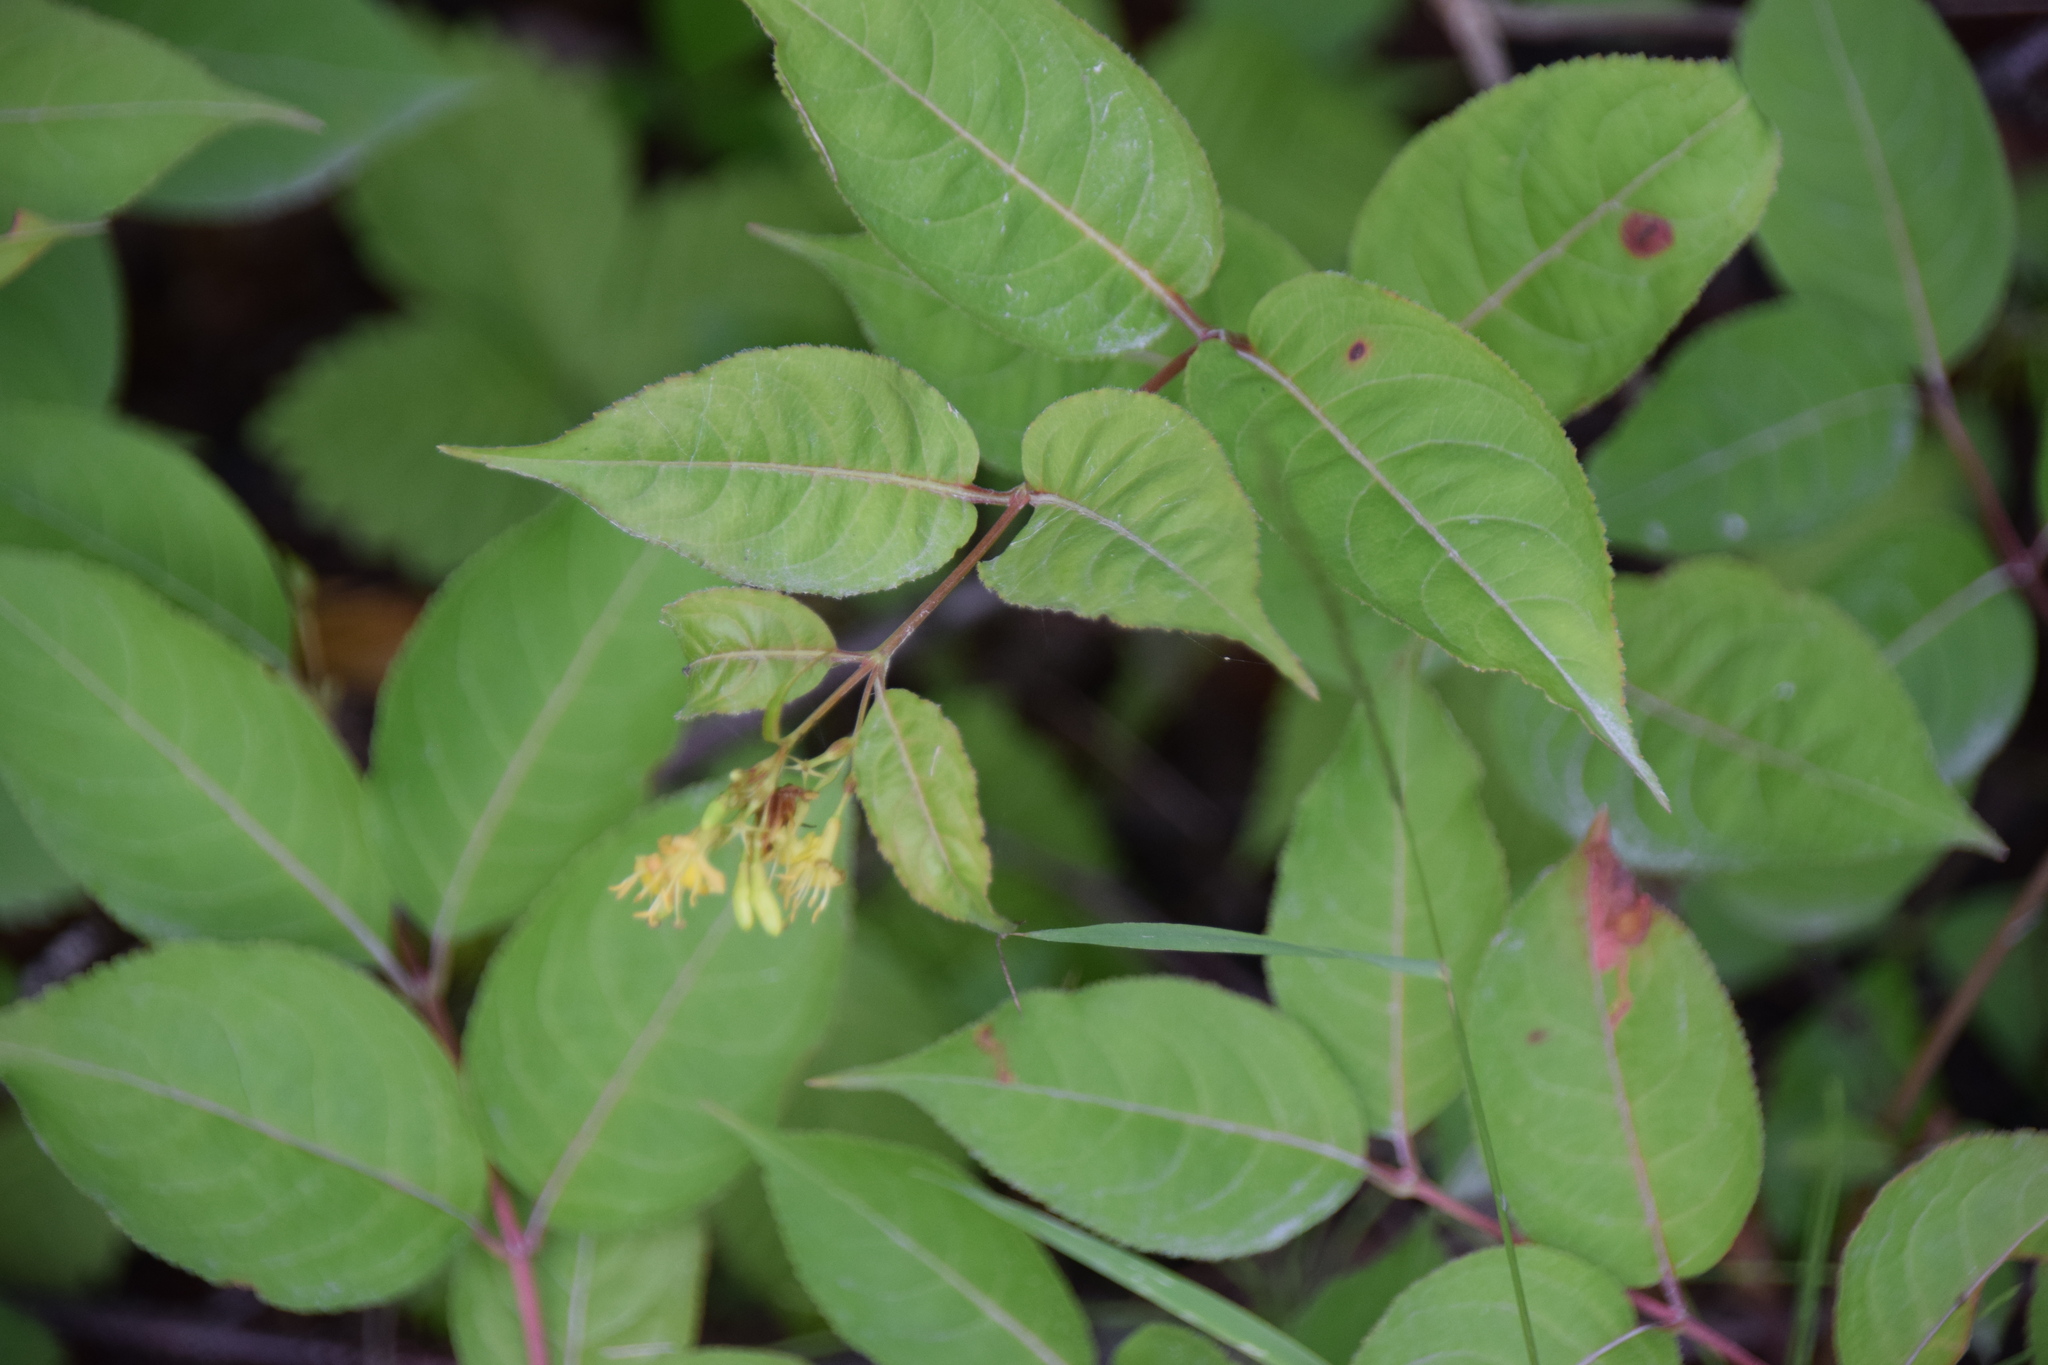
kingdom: Plantae
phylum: Tracheophyta
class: Magnoliopsida
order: Dipsacales
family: Caprifoliaceae
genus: Diervilla
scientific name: Diervilla lonicera
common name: Bush-honeysuckle
